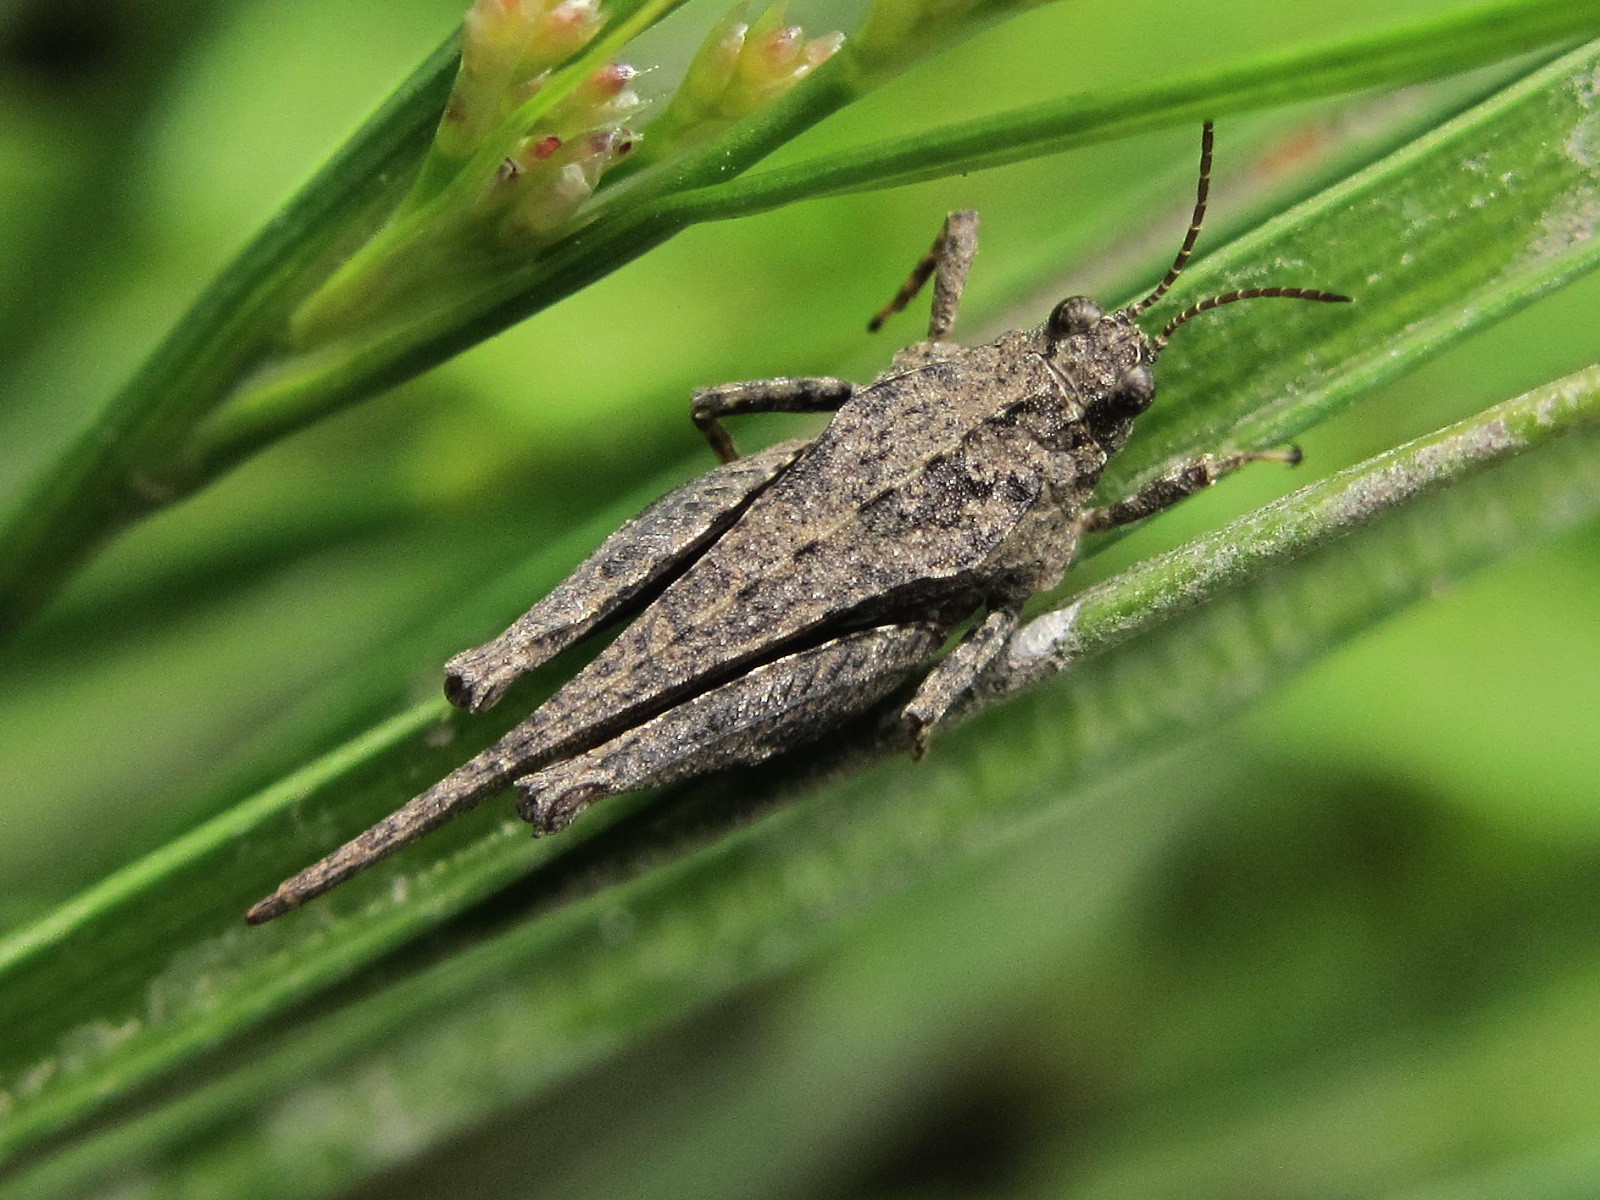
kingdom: Animalia
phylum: Arthropoda
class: Insecta
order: Orthoptera
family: Tetrigidae
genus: Tetrix
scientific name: Tetrix subulata
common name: Slender ground-hopper
